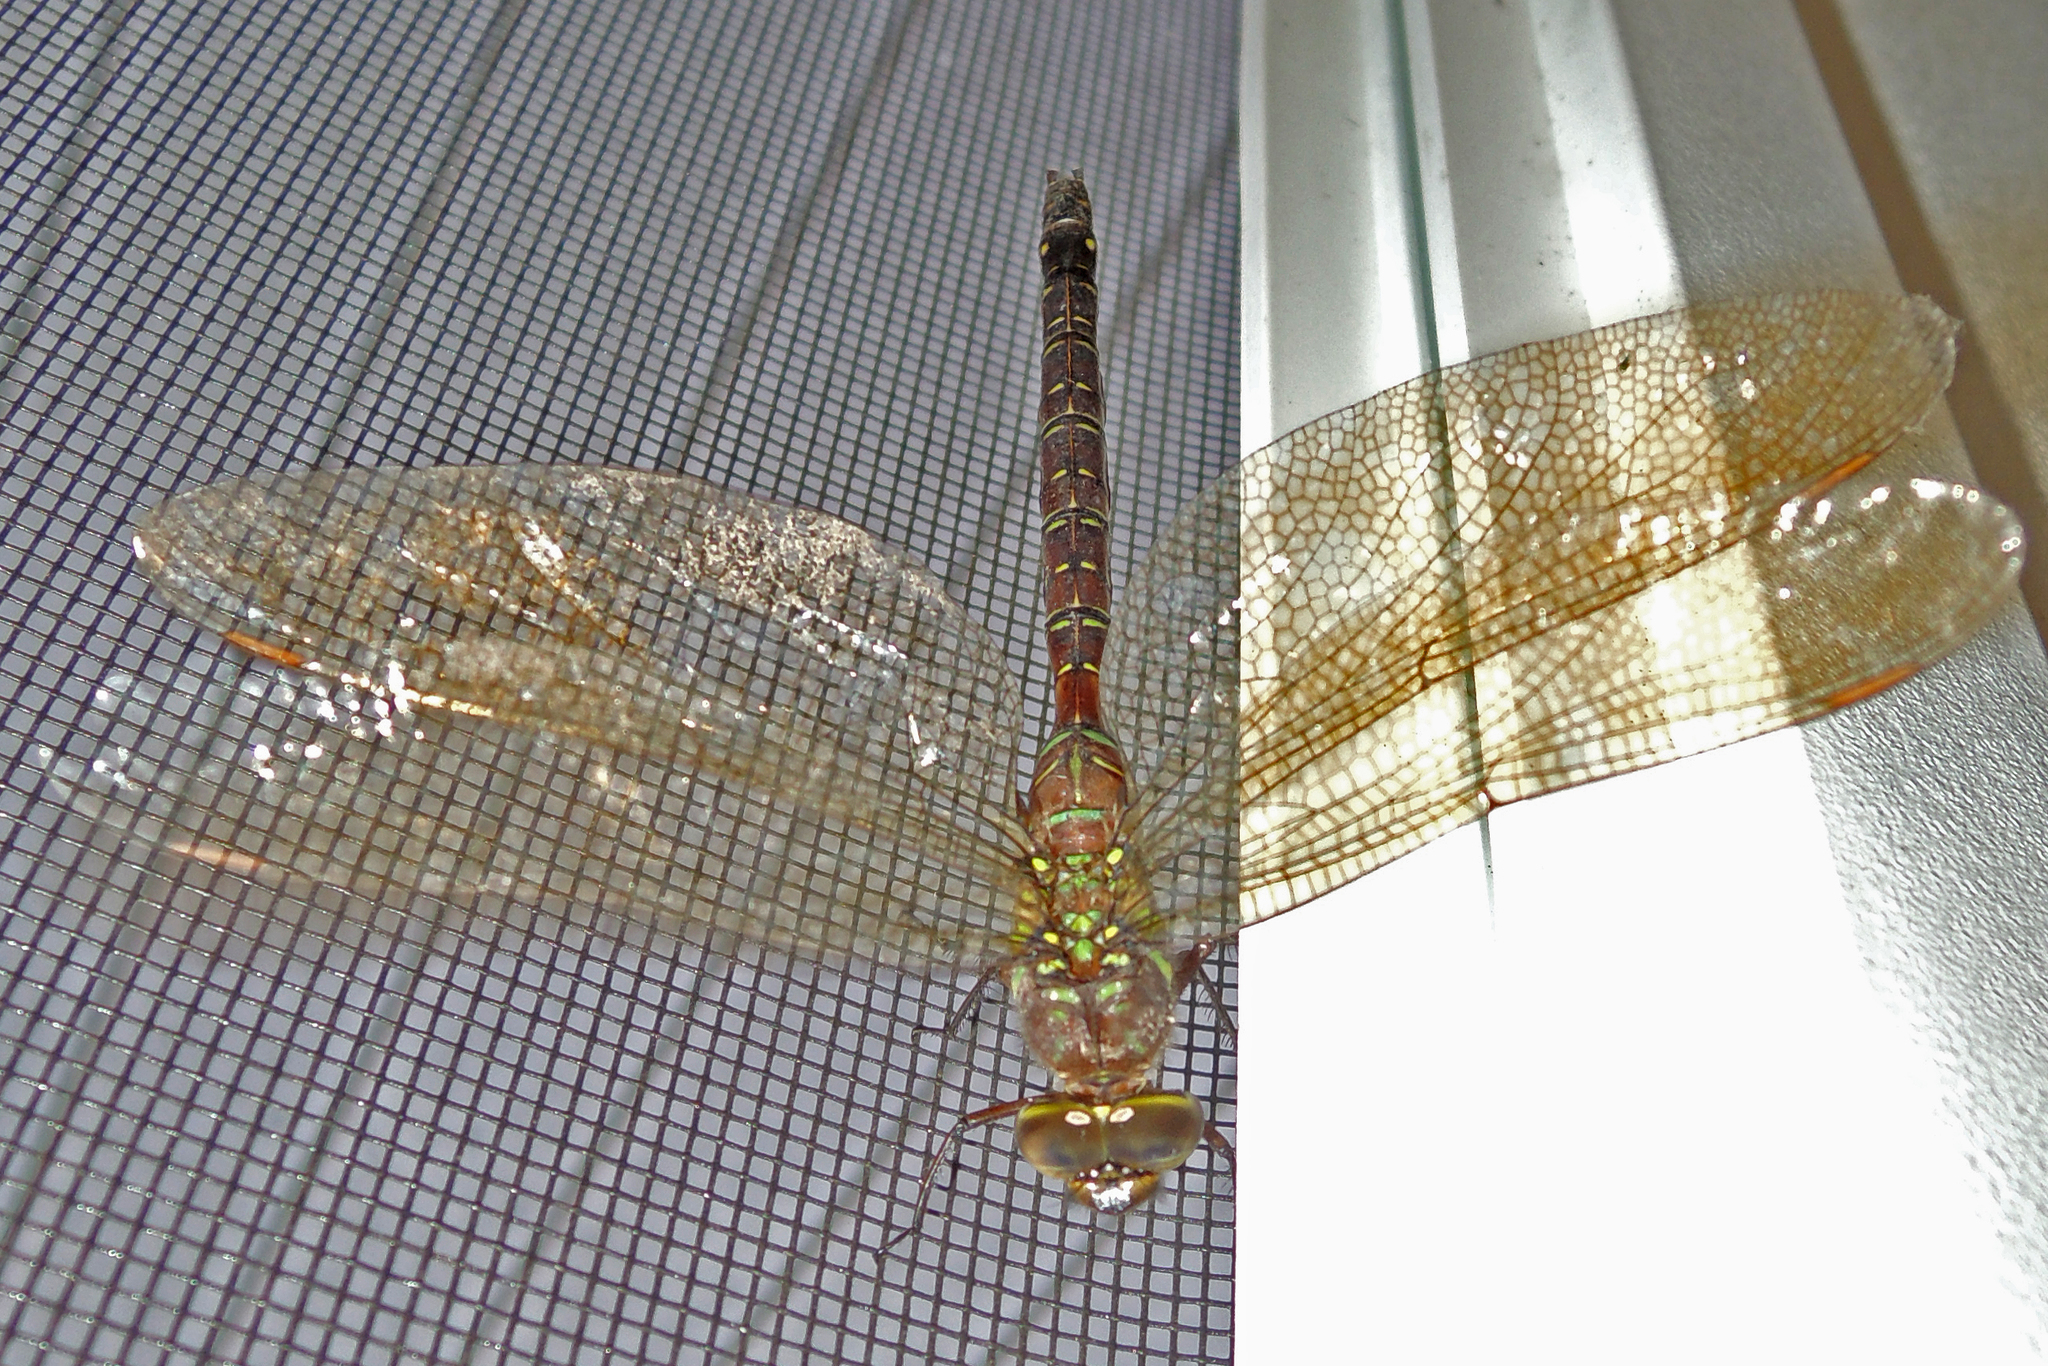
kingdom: Animalia
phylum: Arthropoda
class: Insecta
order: Odonata
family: Aeshnidae
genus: Aeshna
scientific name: Aeshna umbrosa
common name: Shadow darner
